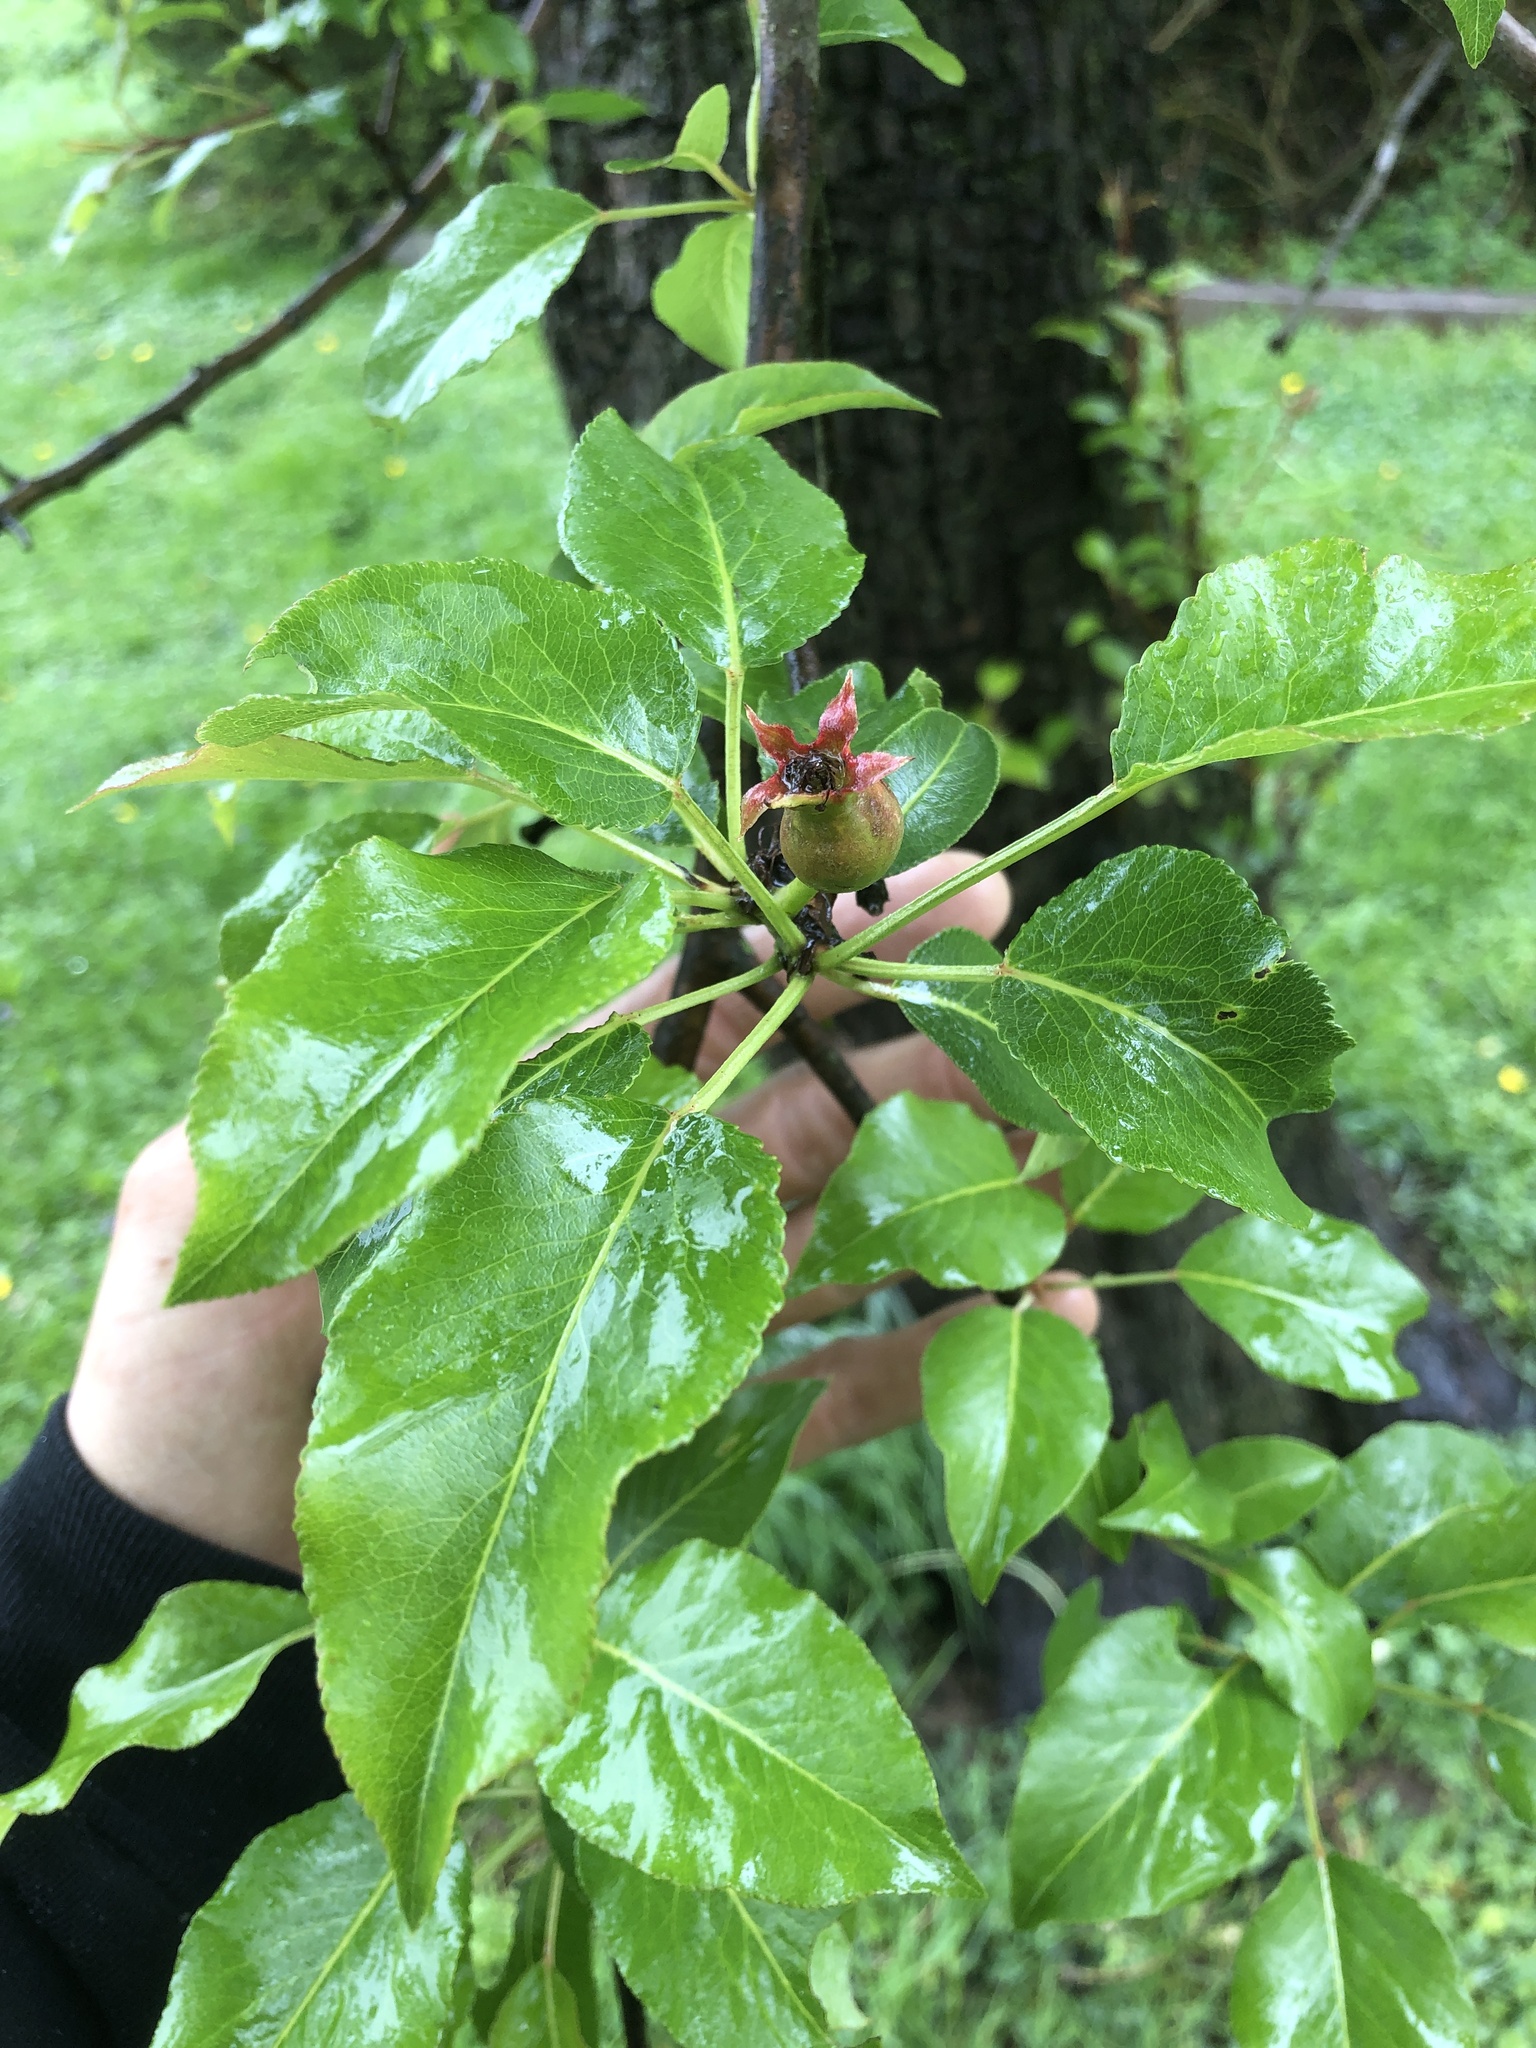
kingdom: Plantae
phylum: Tracheophyta
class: Magnoliopsida
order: Rosales
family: Rosaceae
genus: Pyrus
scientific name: Pyrus calleryana
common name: Callery pear
